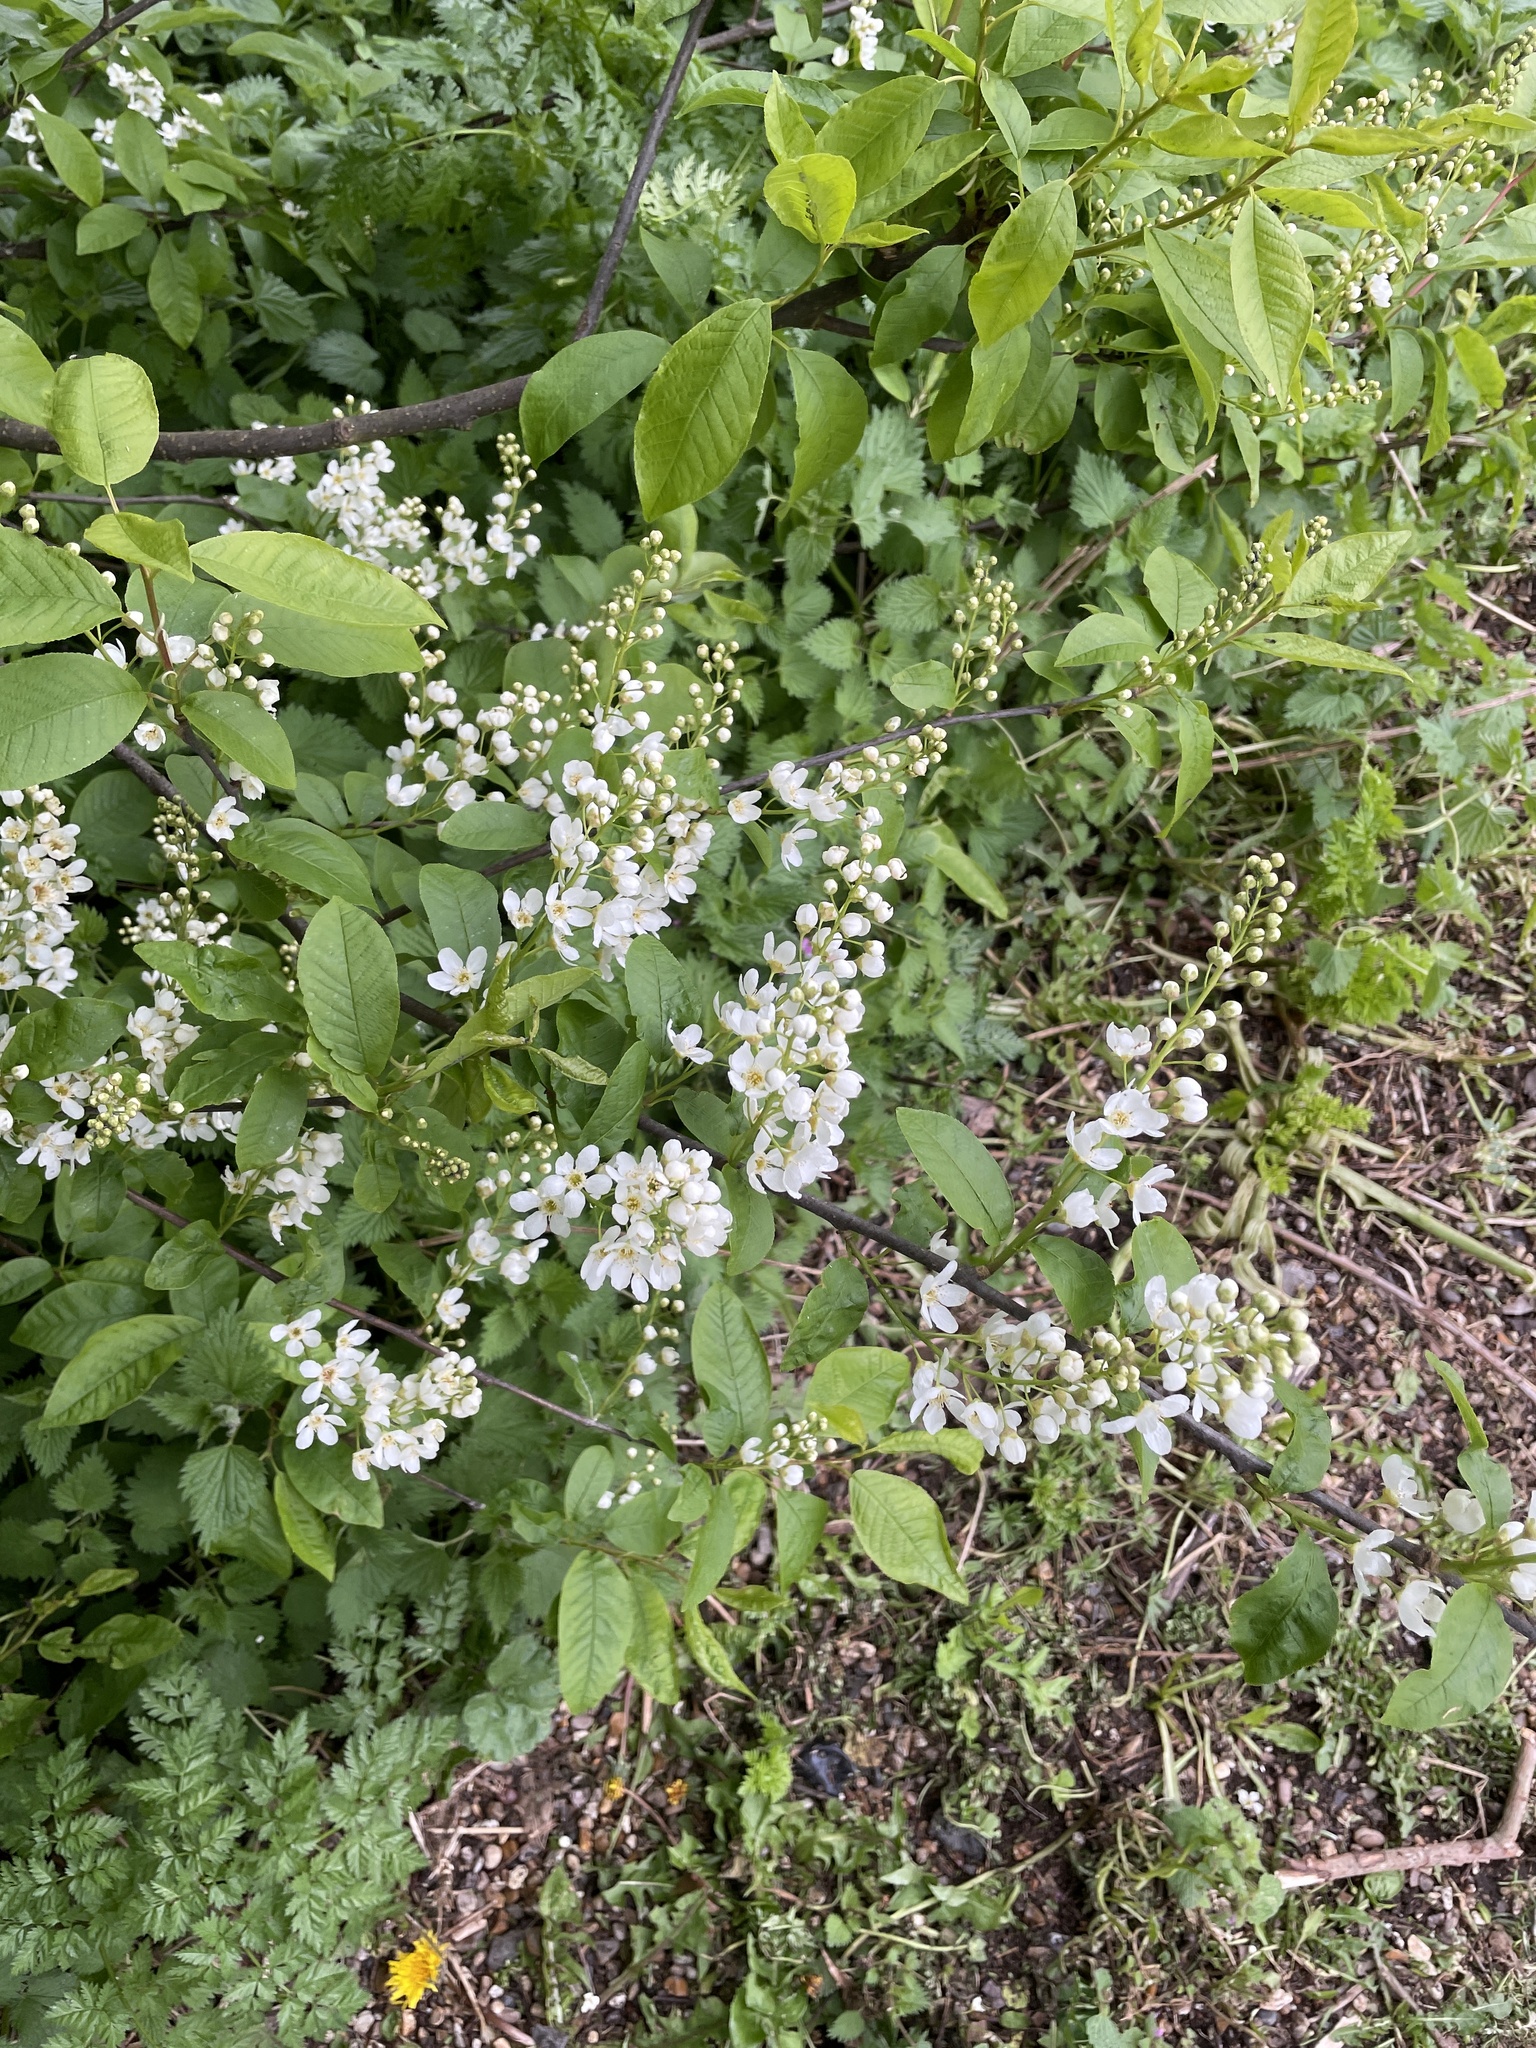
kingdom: Plantae
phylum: Tracheophyta
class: Magnoliopsida
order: Rosales
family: Rosaceae
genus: Prunus
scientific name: Prunus padus
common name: Bird cherry
